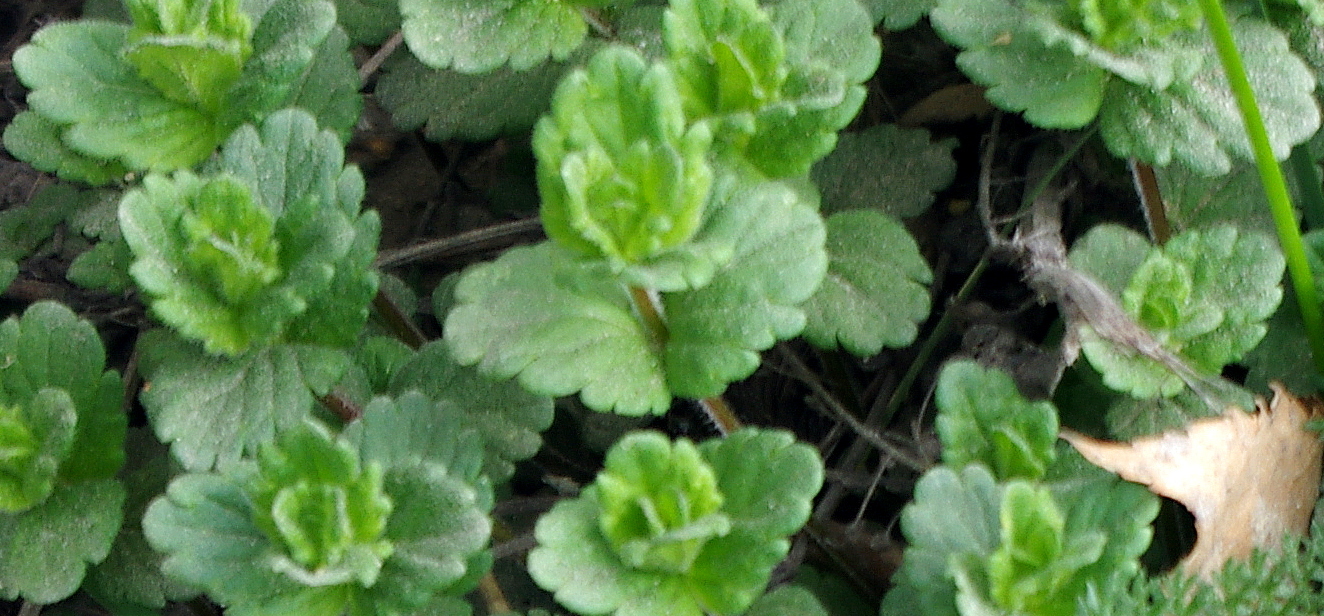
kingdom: Plantae
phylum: Tracheophyta
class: Magnoliopsida
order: Lamiales
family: Plantaginaceae
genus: Veronica
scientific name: Veronica chamaedrys
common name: Germander speedwell
